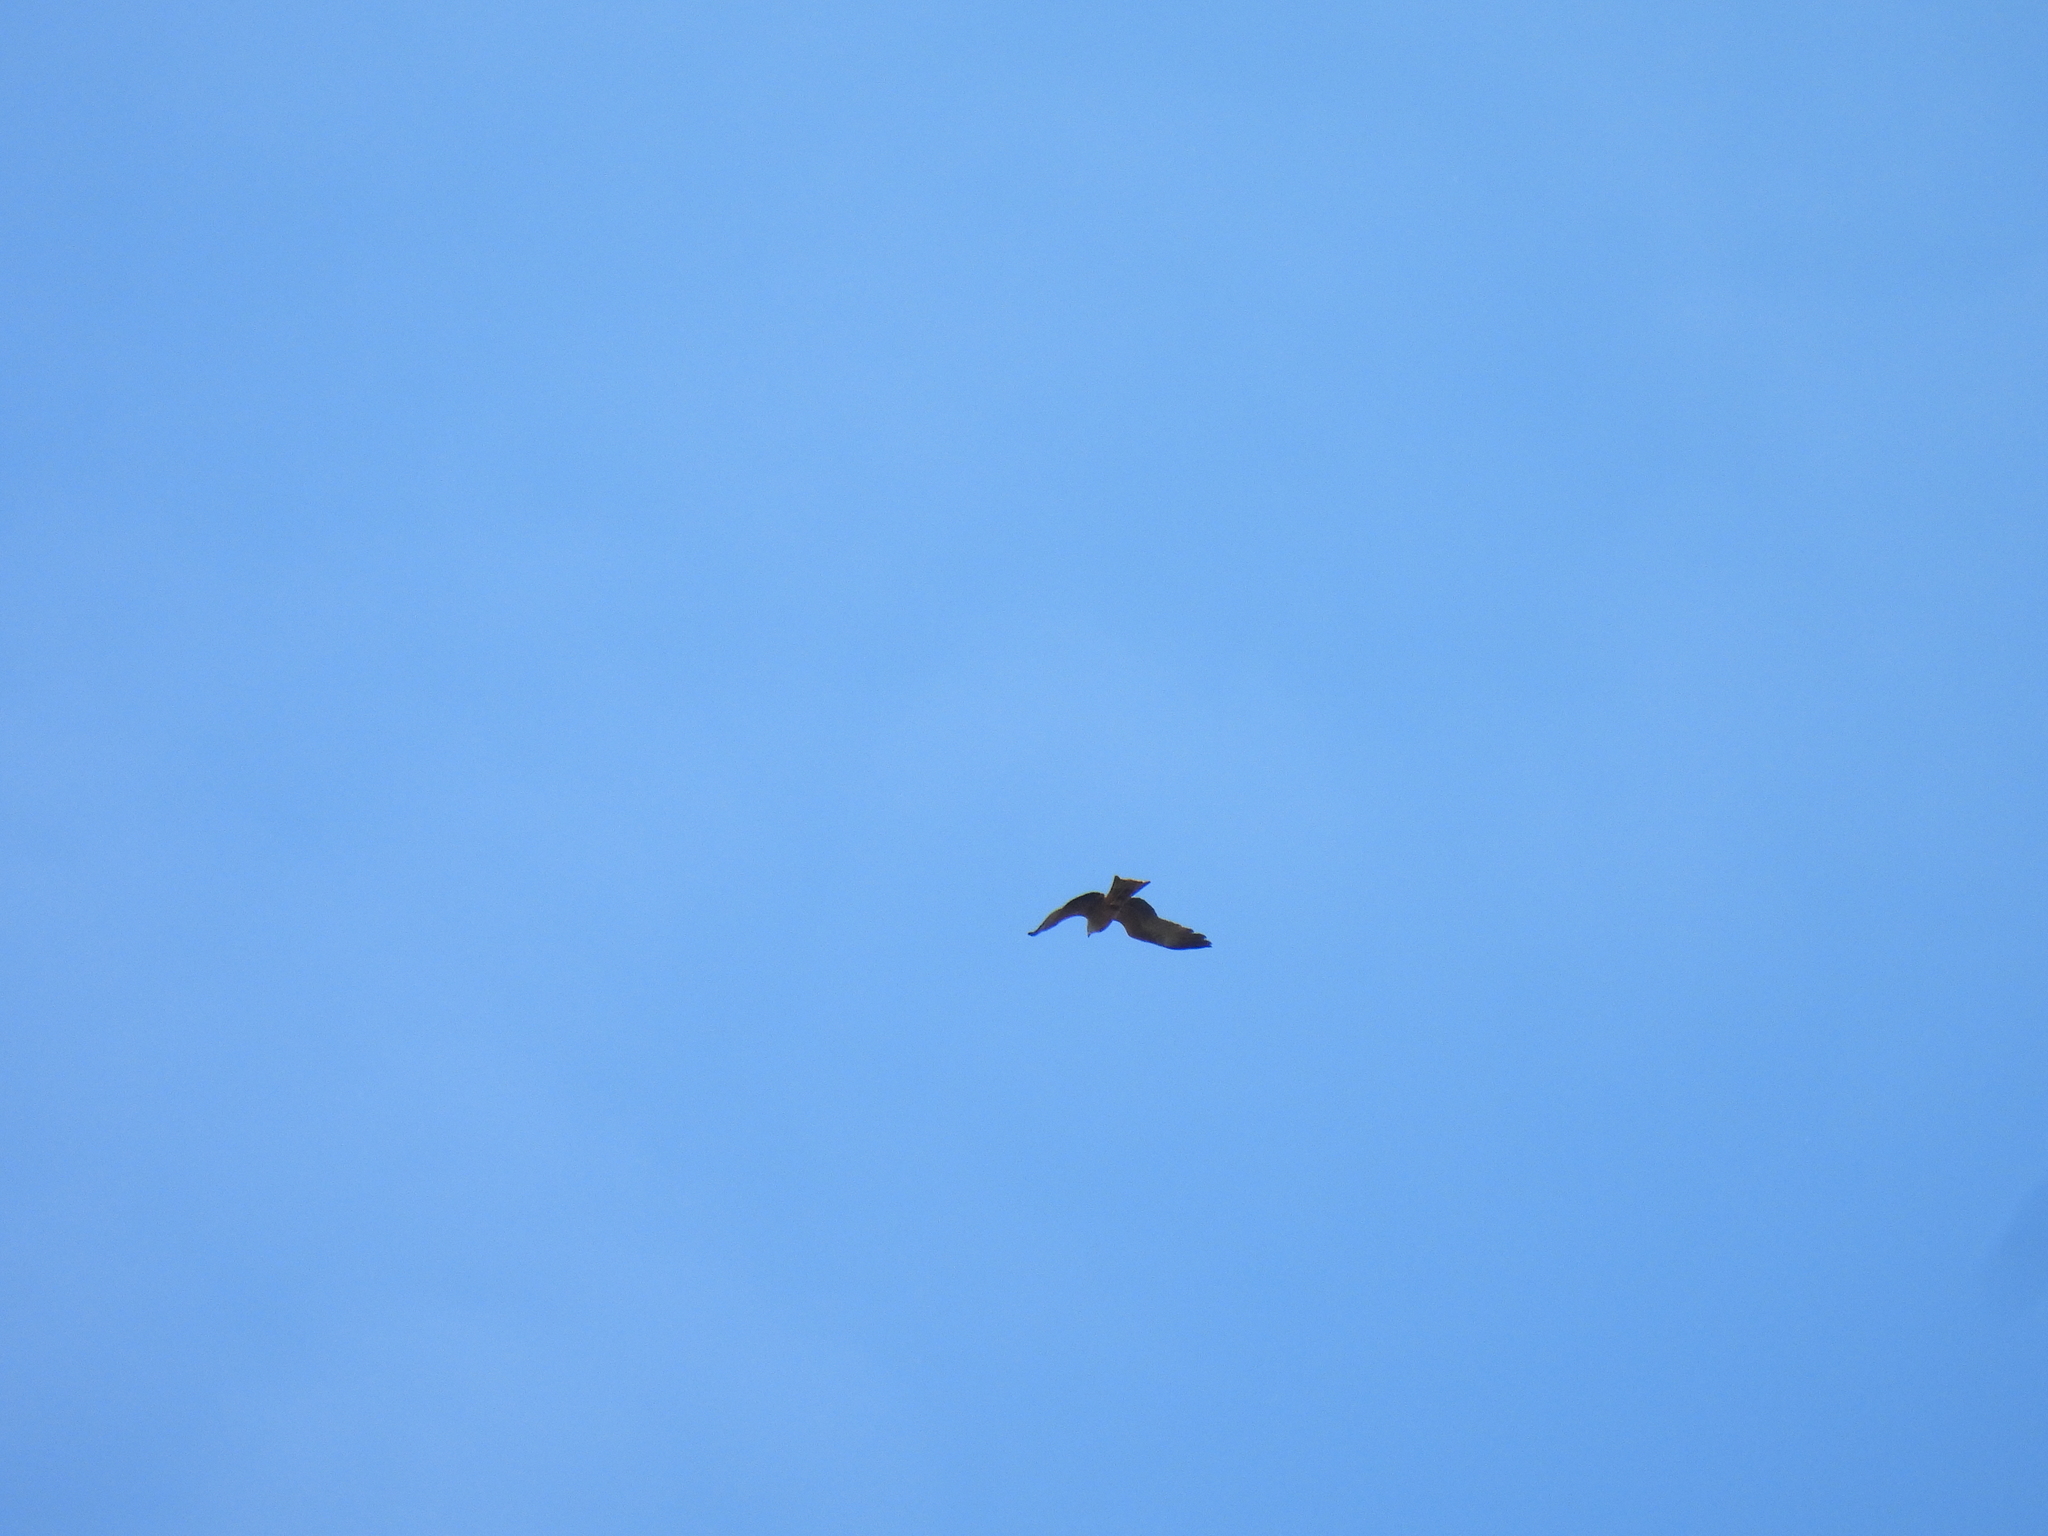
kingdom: Animalia
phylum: Chordata
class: Aves
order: Accipitriformes
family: Accipitridae
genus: Milvus
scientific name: Milvus migrans
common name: Black kite
